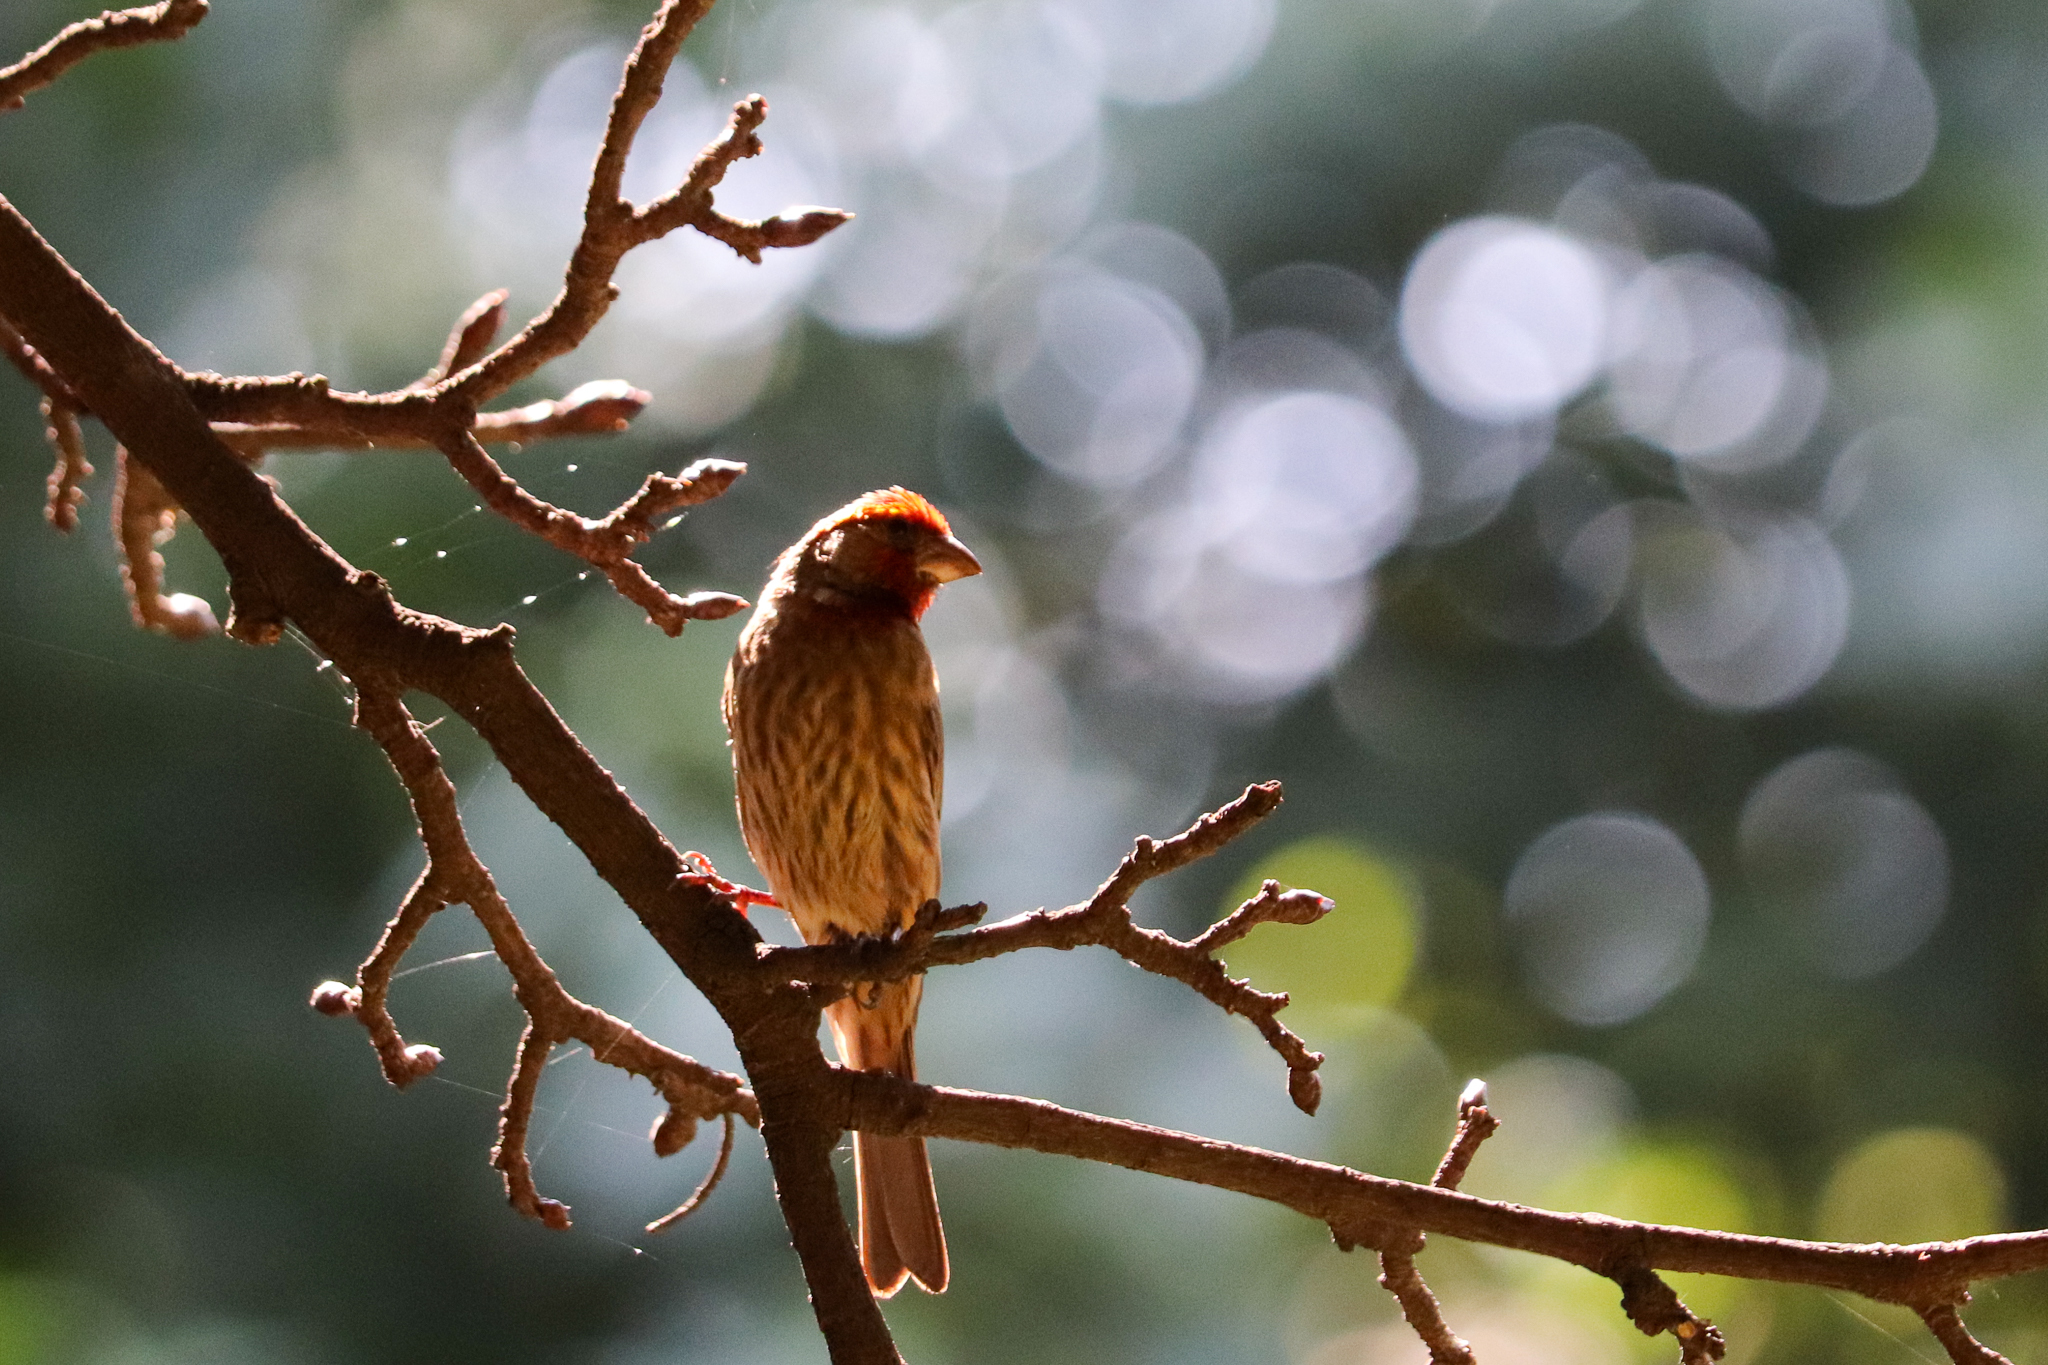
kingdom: Animalia
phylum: Chordata
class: Aves
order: Passeriformes
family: Fringillidae
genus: Haemorhous
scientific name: Haemorhous mexicanus
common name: House finch
